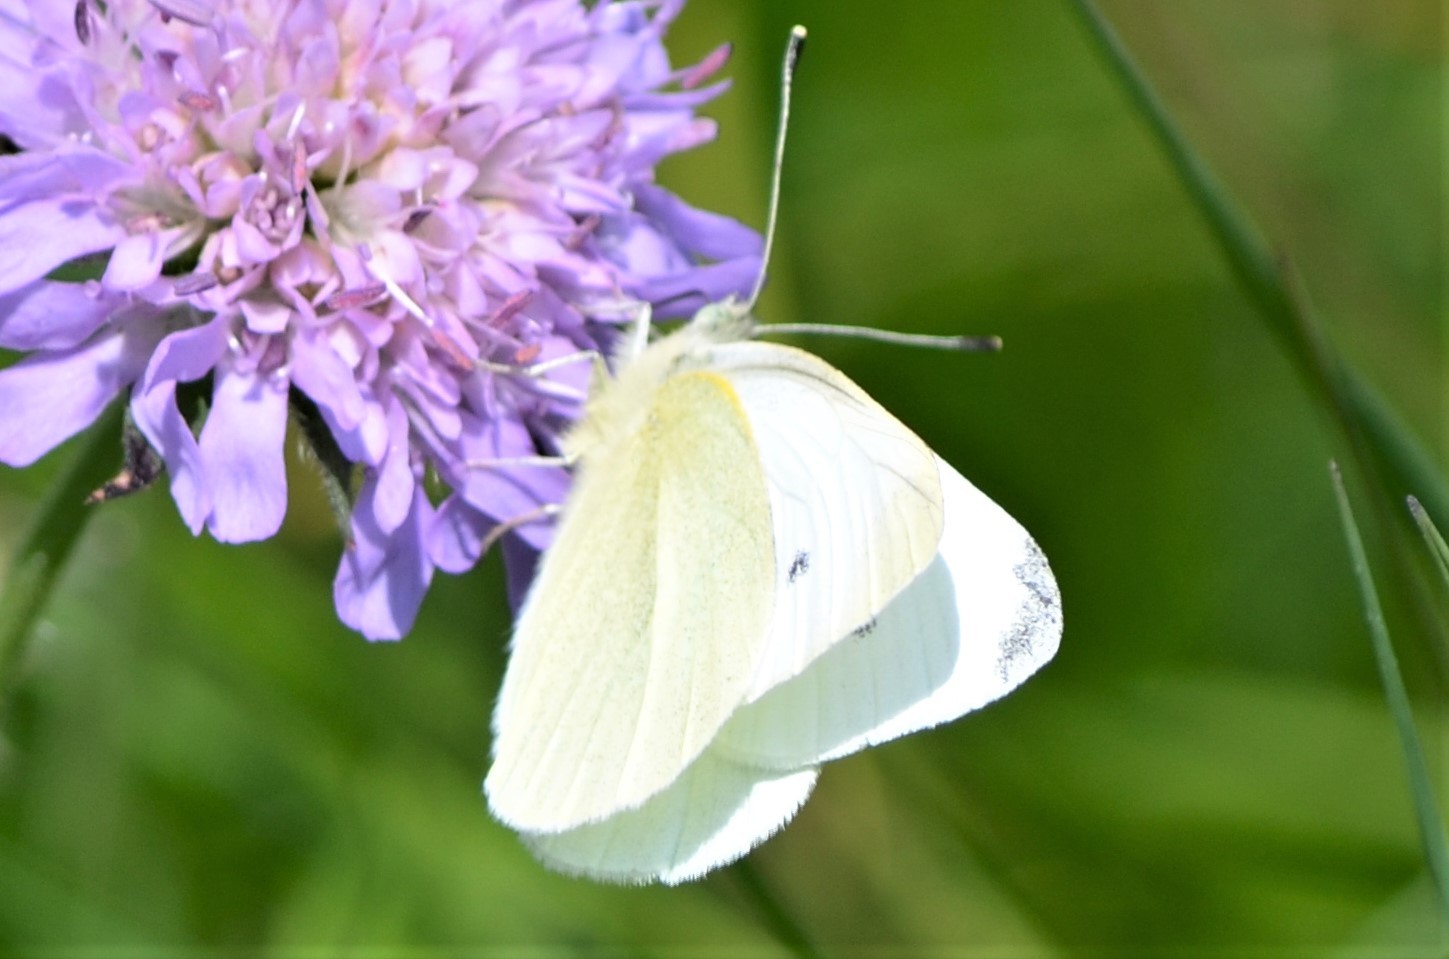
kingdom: Animalia
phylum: Arthropoda
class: Insecta
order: Lepidoptera
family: Pieridae
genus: Pieris
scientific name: Pieris rapae
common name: Small white
